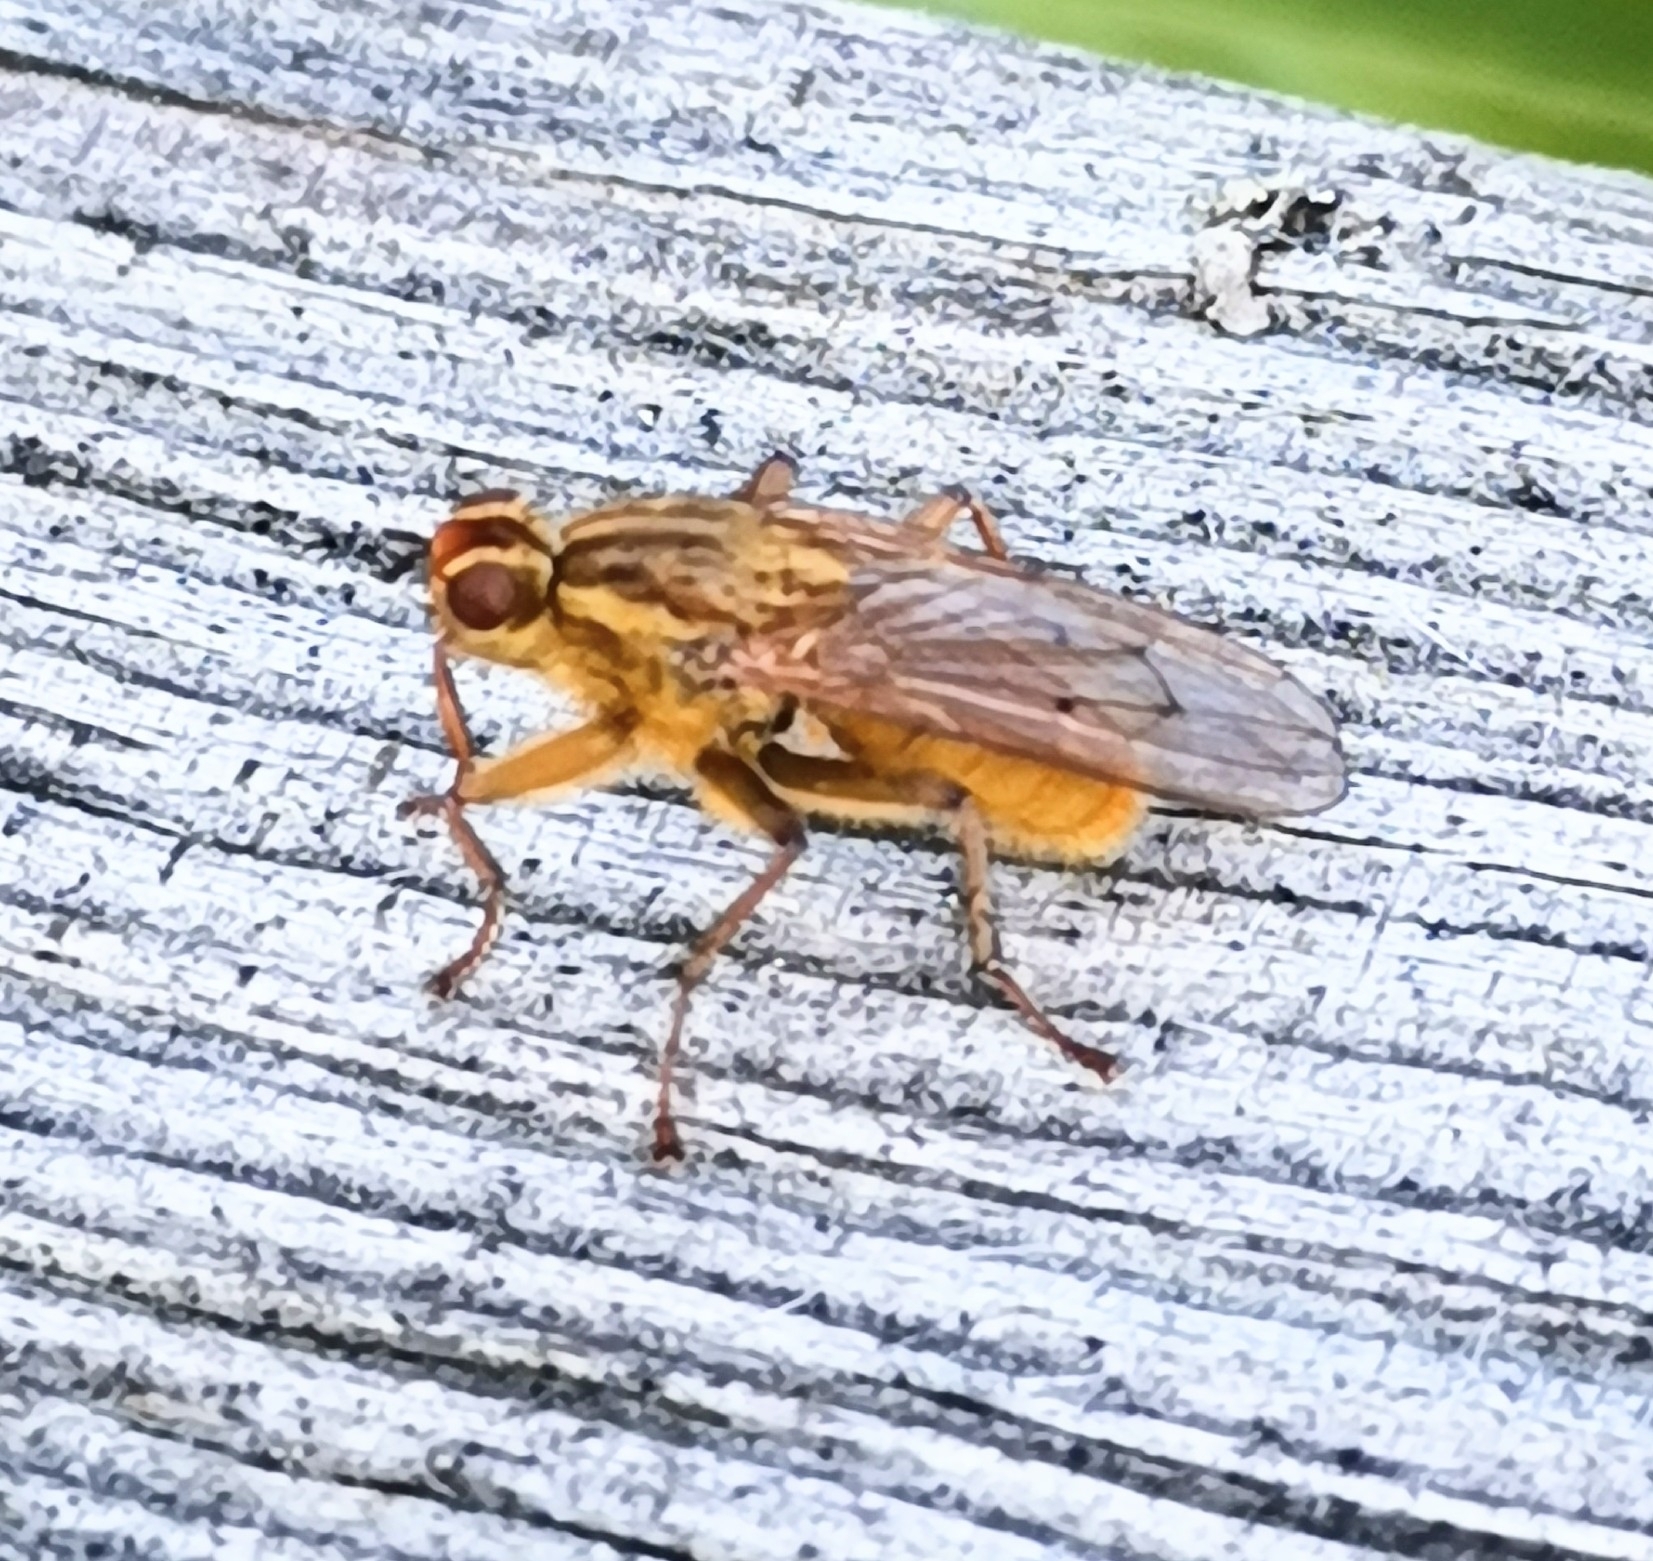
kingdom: Animalia
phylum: Arthropoda
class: Insecta
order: Diptera
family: Scathophagidae
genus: Scathophaga
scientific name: Scathophaga stercoraria
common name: Yellow dung fly
